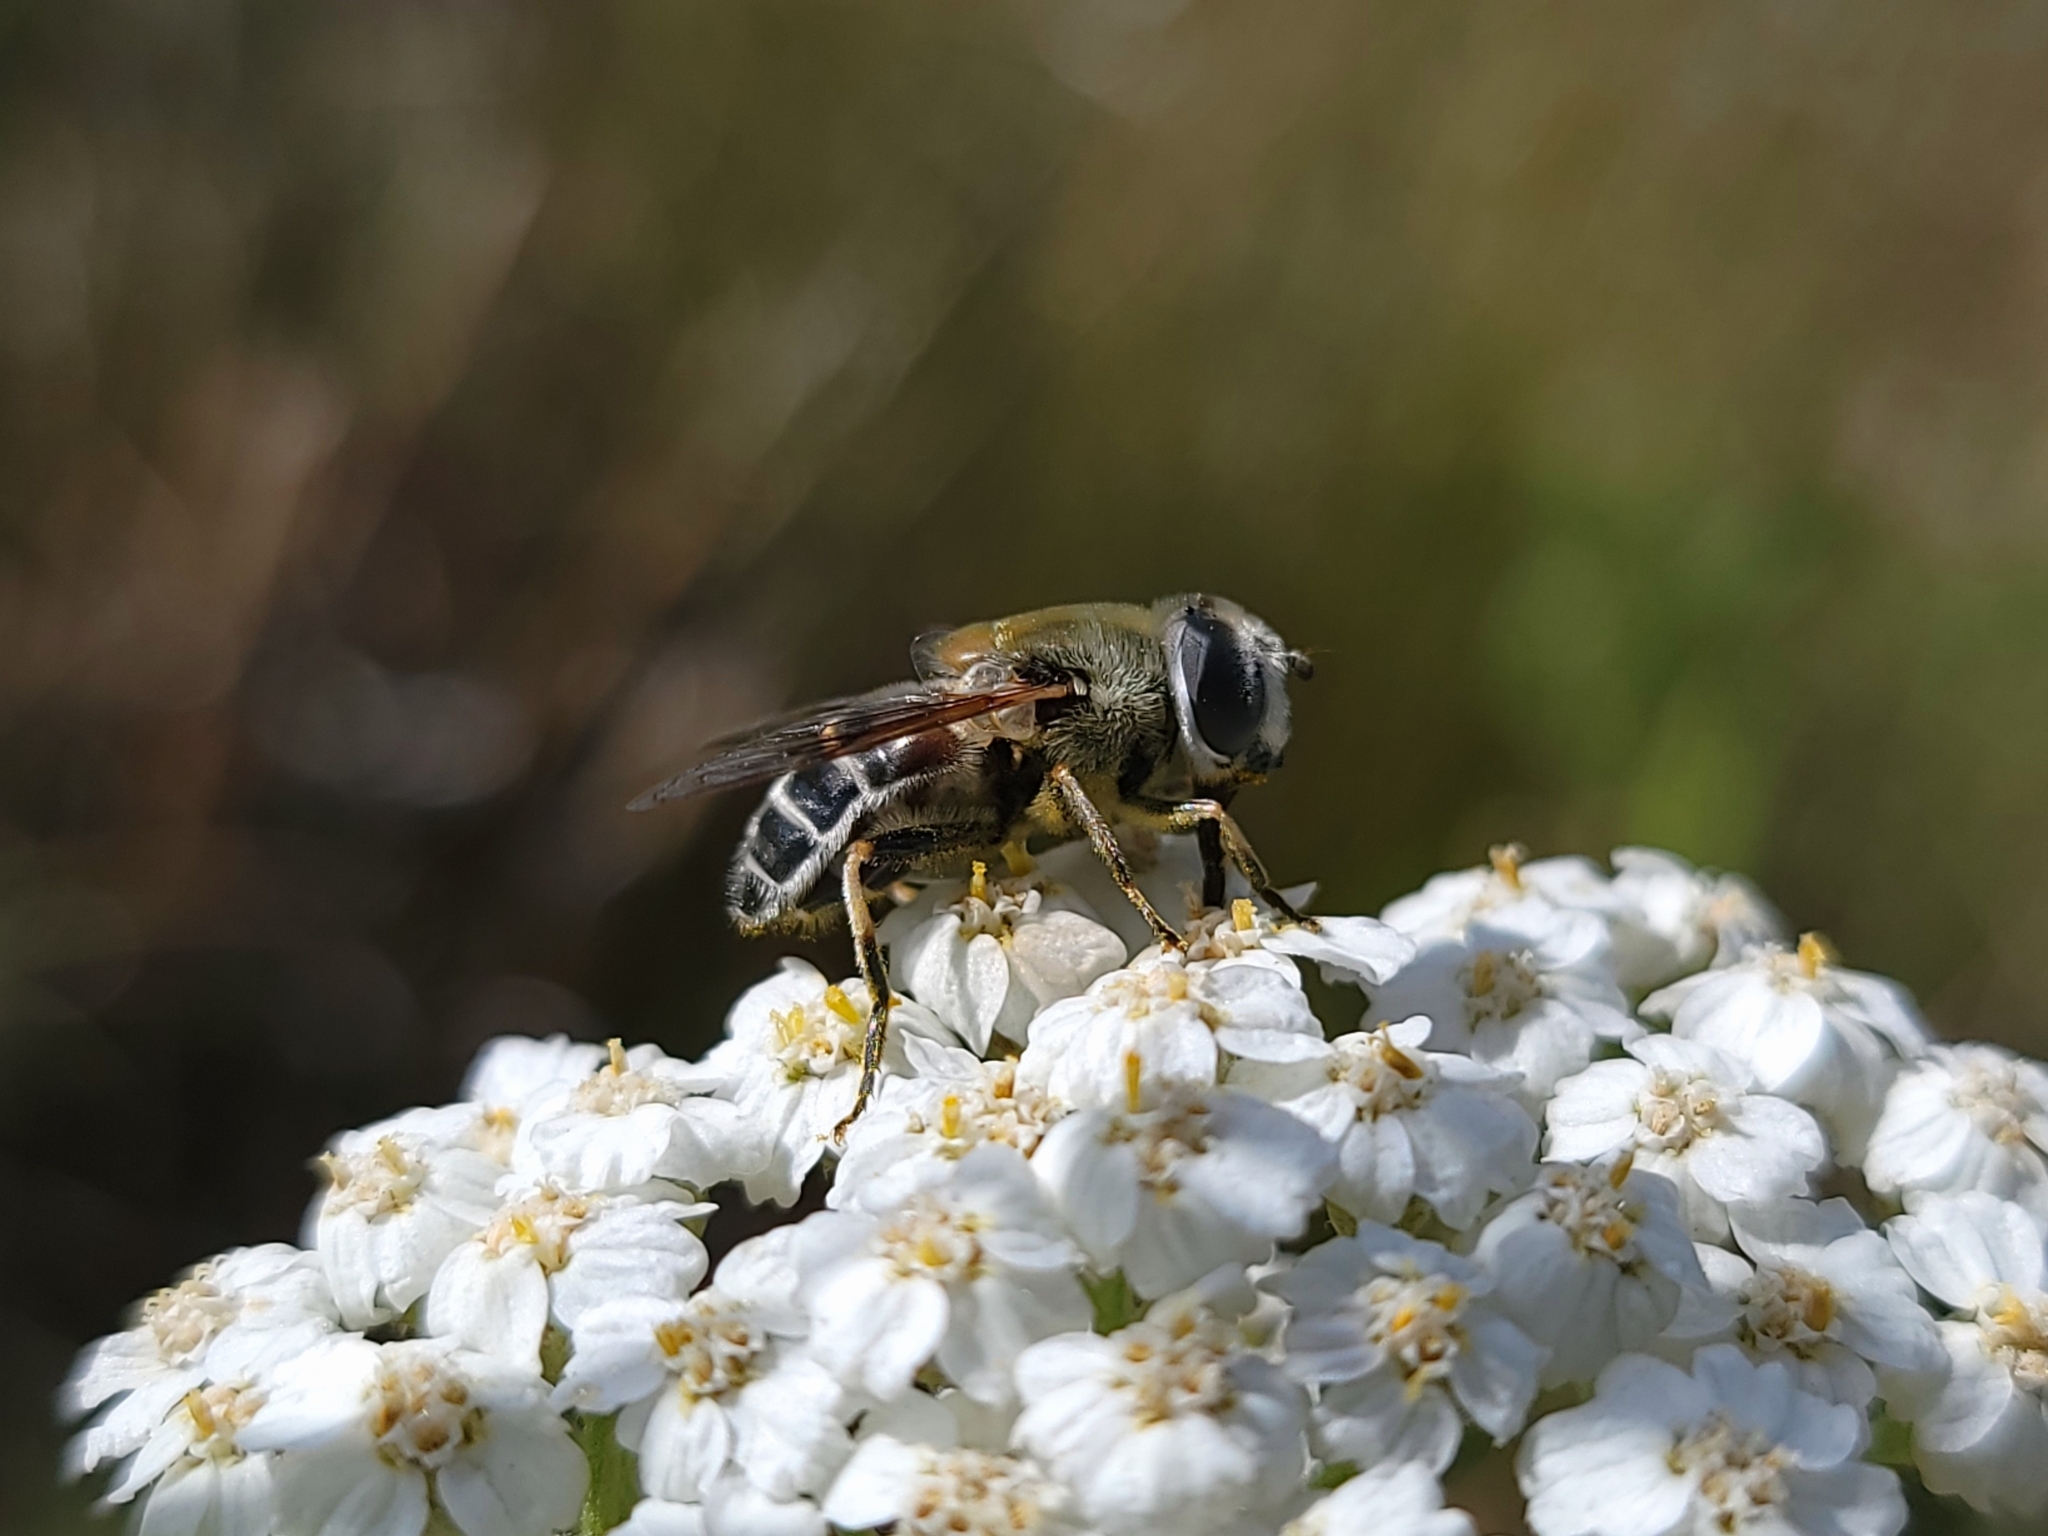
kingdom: Animalia
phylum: Arthropoda
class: Insecta
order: Diptera
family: Syrphidae
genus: Eristalis
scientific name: Eristalis stipator
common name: Yellow-shouldered drone fly
